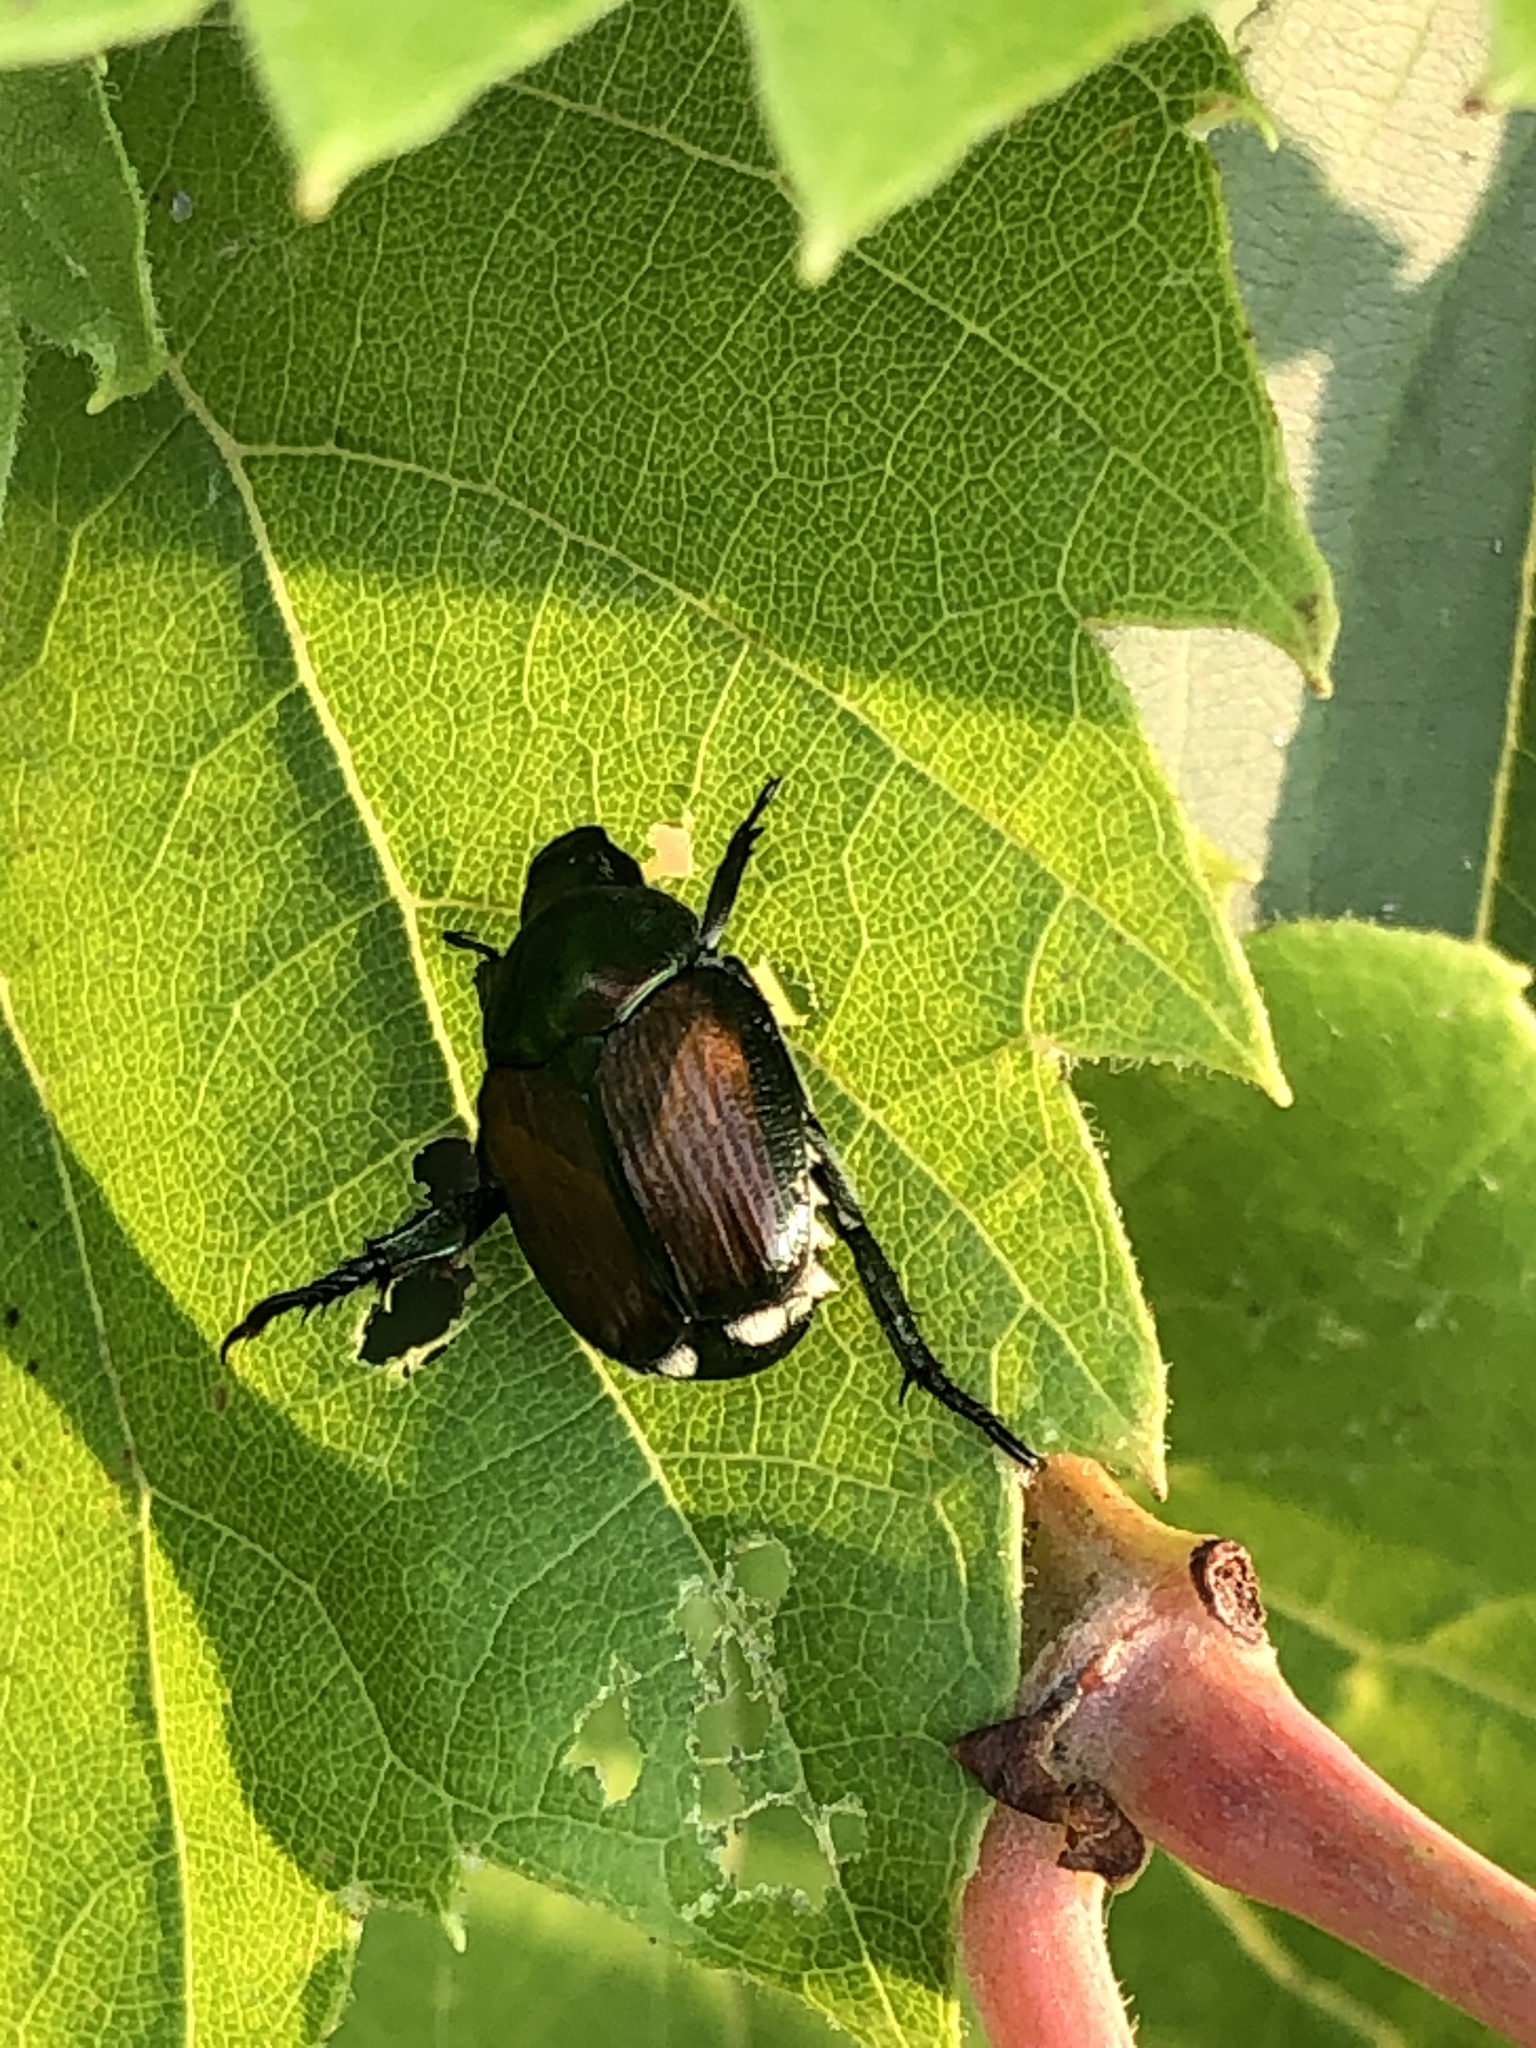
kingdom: Animalia
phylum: Arthropoda
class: Insecta
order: Coleoptera
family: Scarabaeidae
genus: Popillia
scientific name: Popillia japonica
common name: Japanese beetle
